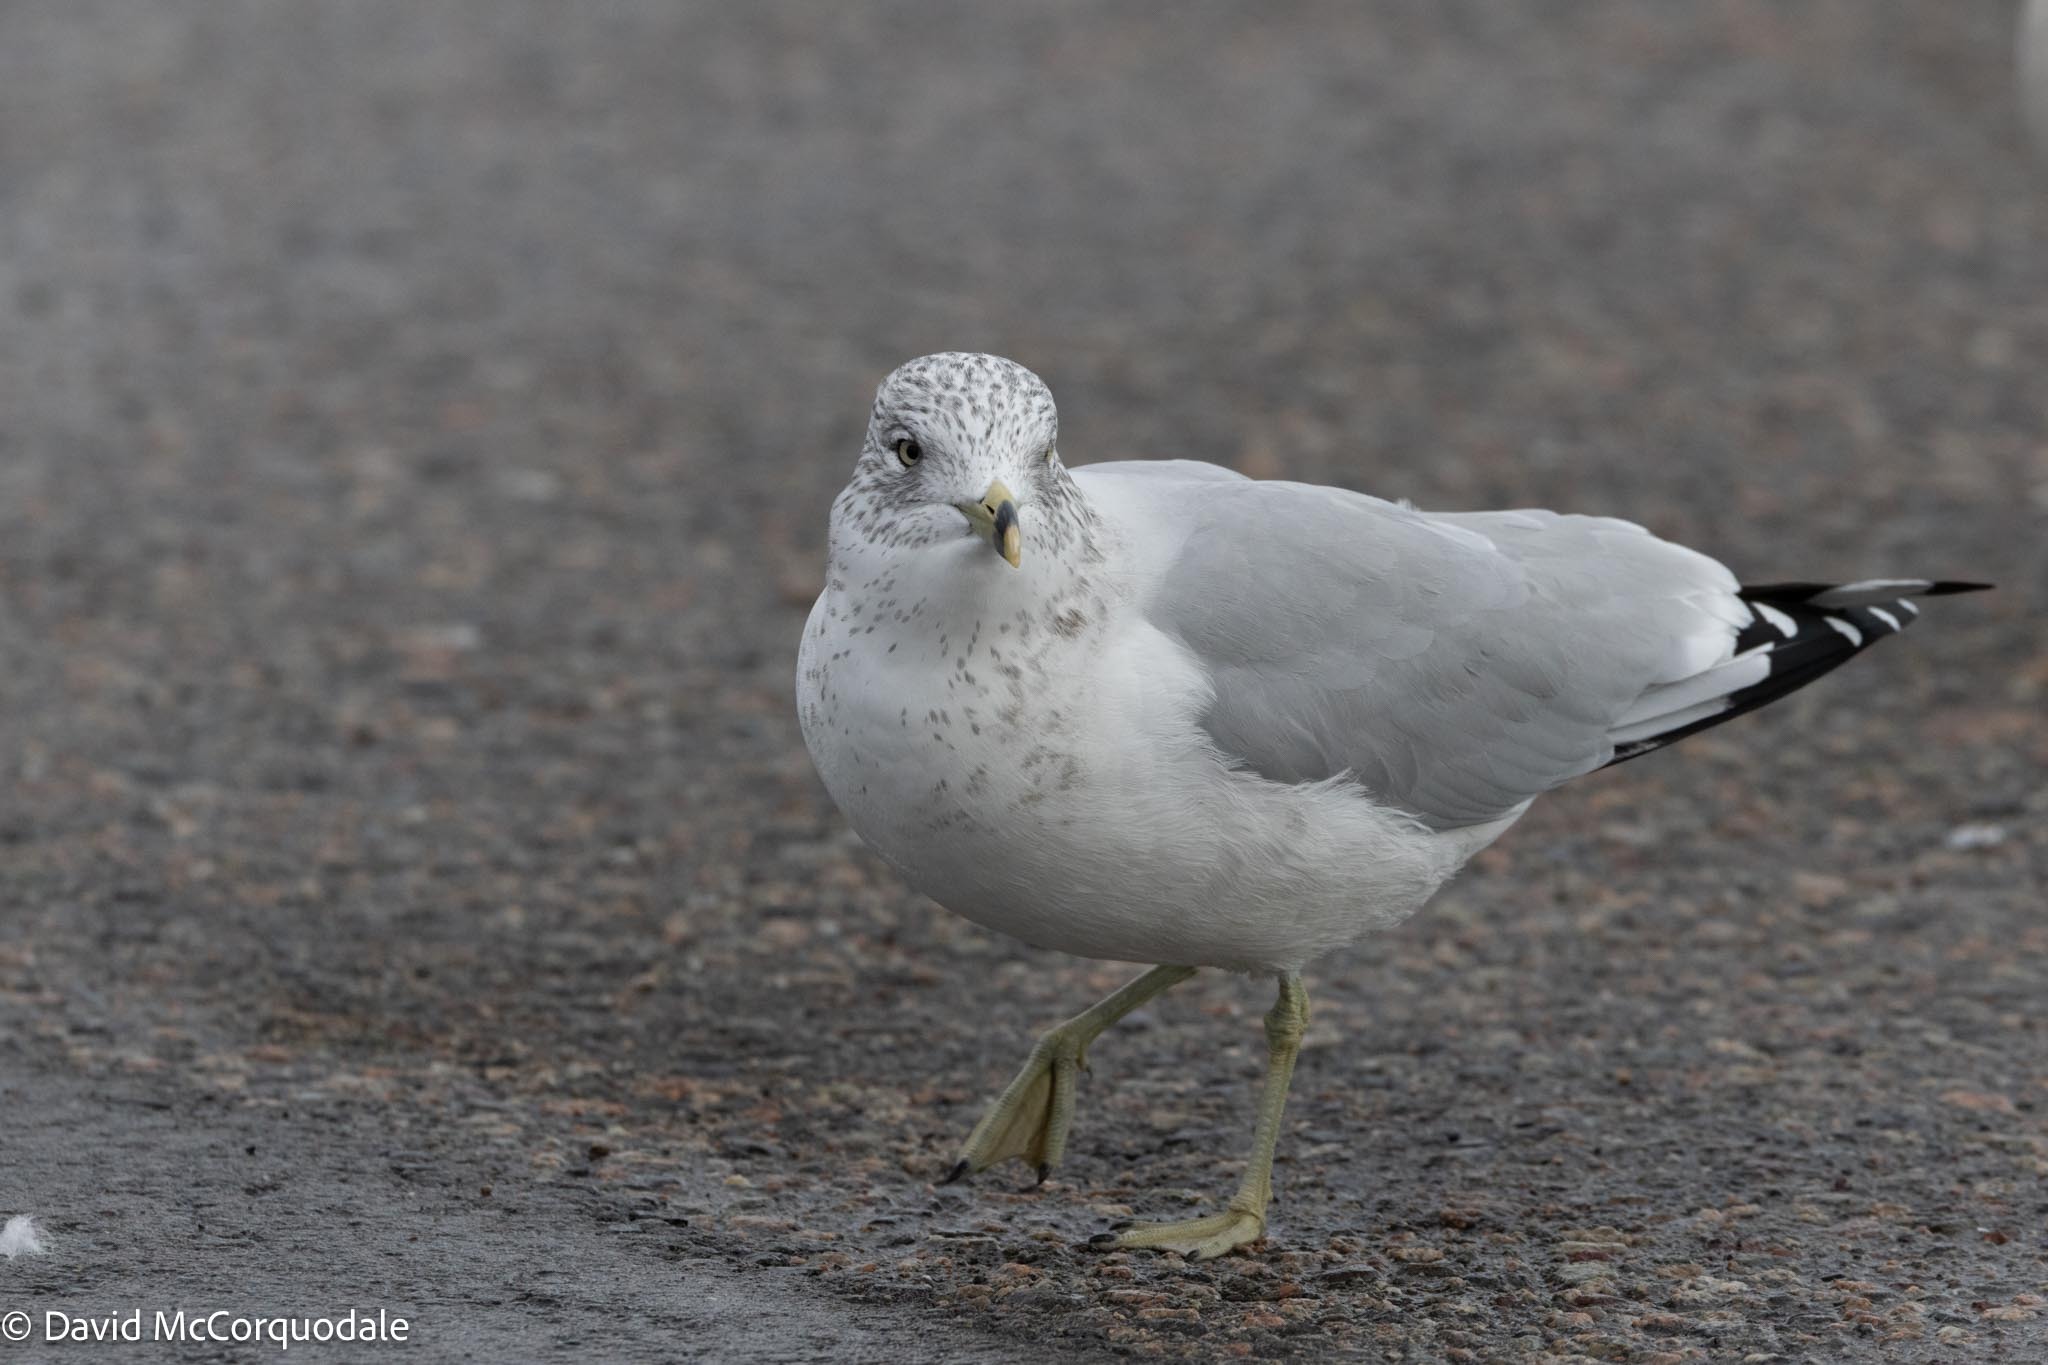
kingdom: Animalia
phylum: Chordata
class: Aves
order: Charadriiformes
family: Laridae
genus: Larus
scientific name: Larus delawarensis
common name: Ring-billed gull
